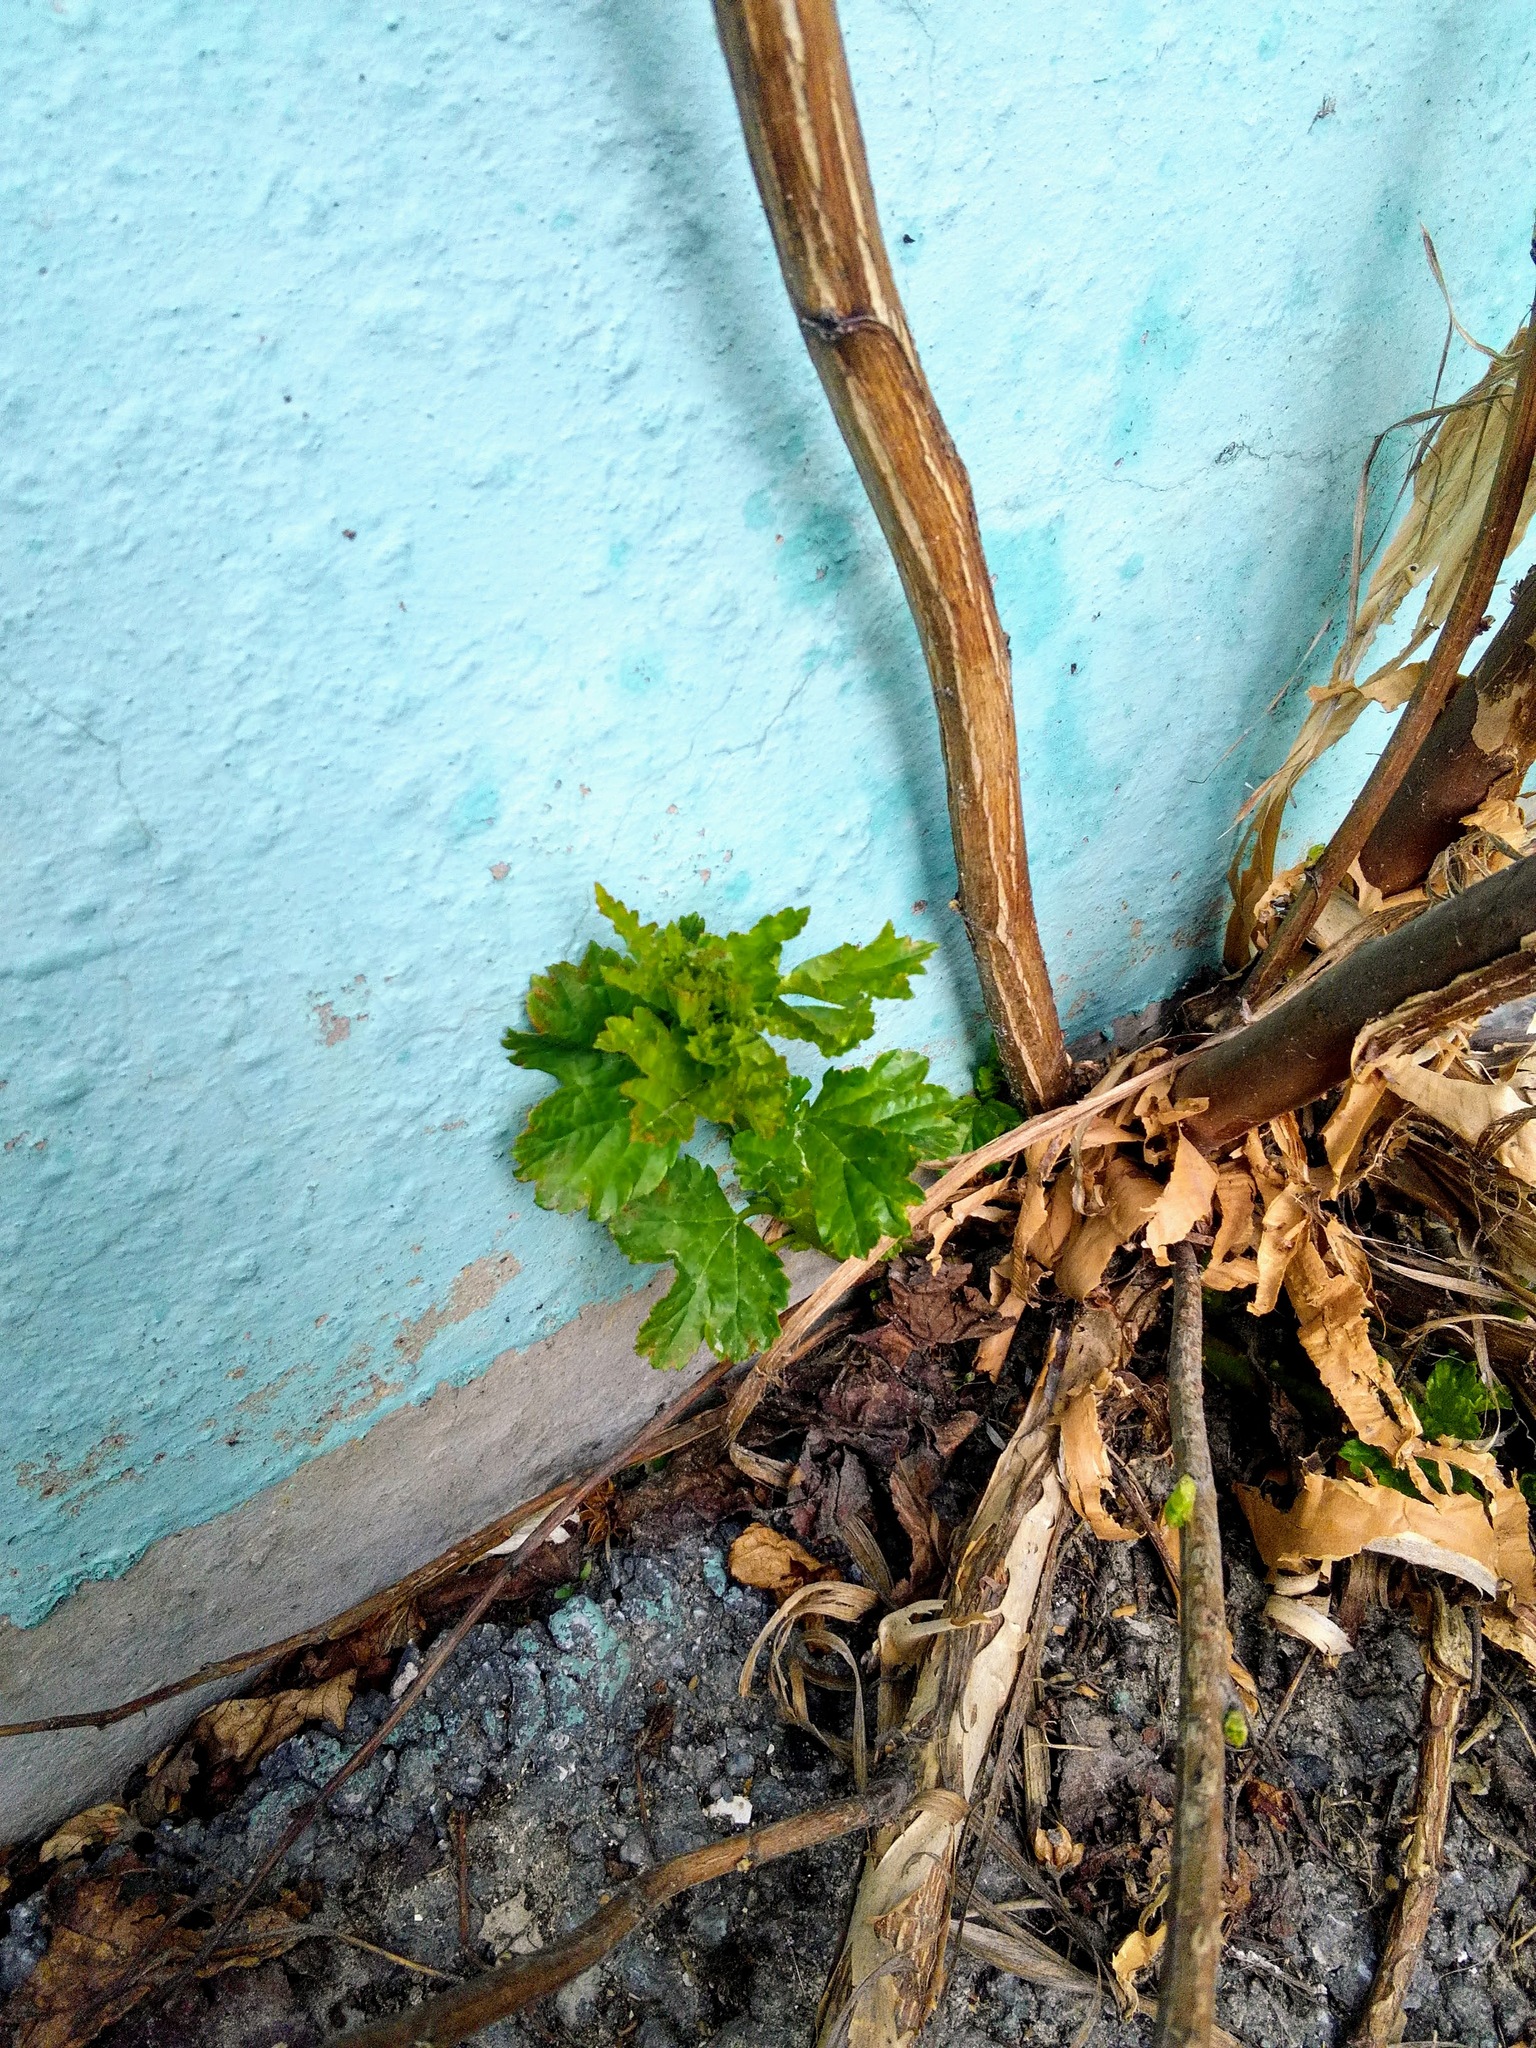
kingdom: Plantae
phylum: Tracheophyta
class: Magnoliopsida
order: Rosales
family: Rosaceae
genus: Physocarpus
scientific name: Physocarpus opulifolius
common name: Ninebark
